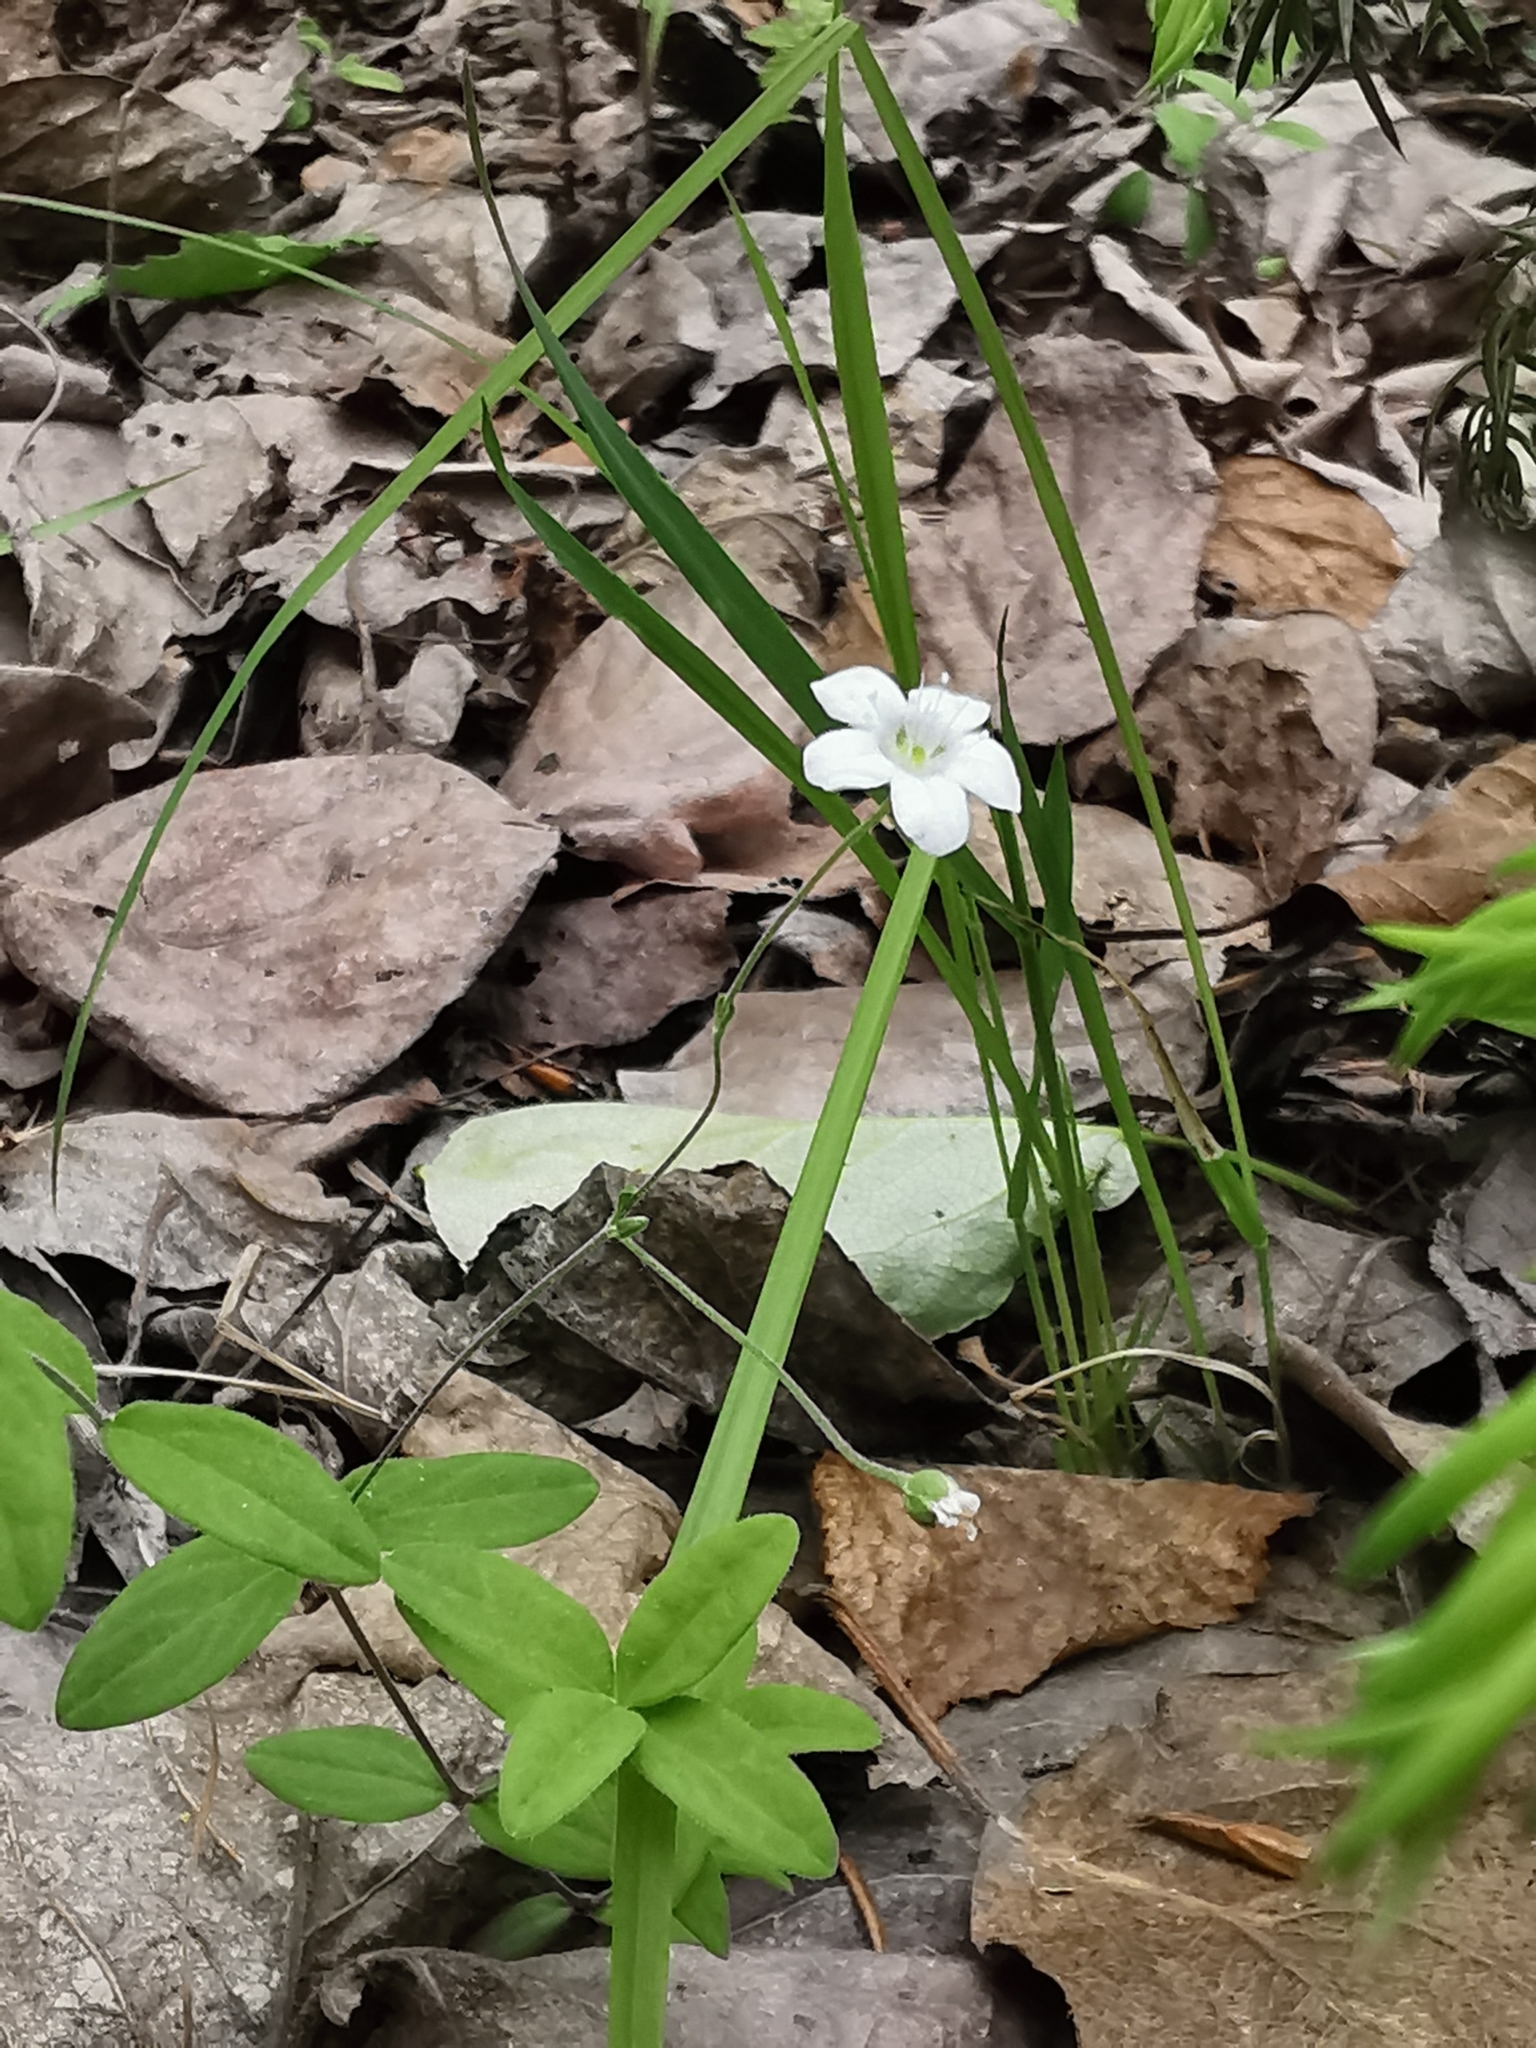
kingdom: Plantae
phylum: Tracheophyta
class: Magnoliopsida
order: Caryophyllales
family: Caryophyllaceae
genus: Moehringia
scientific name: Moehringia lateriflora
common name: Blunt-leaved sandwort
